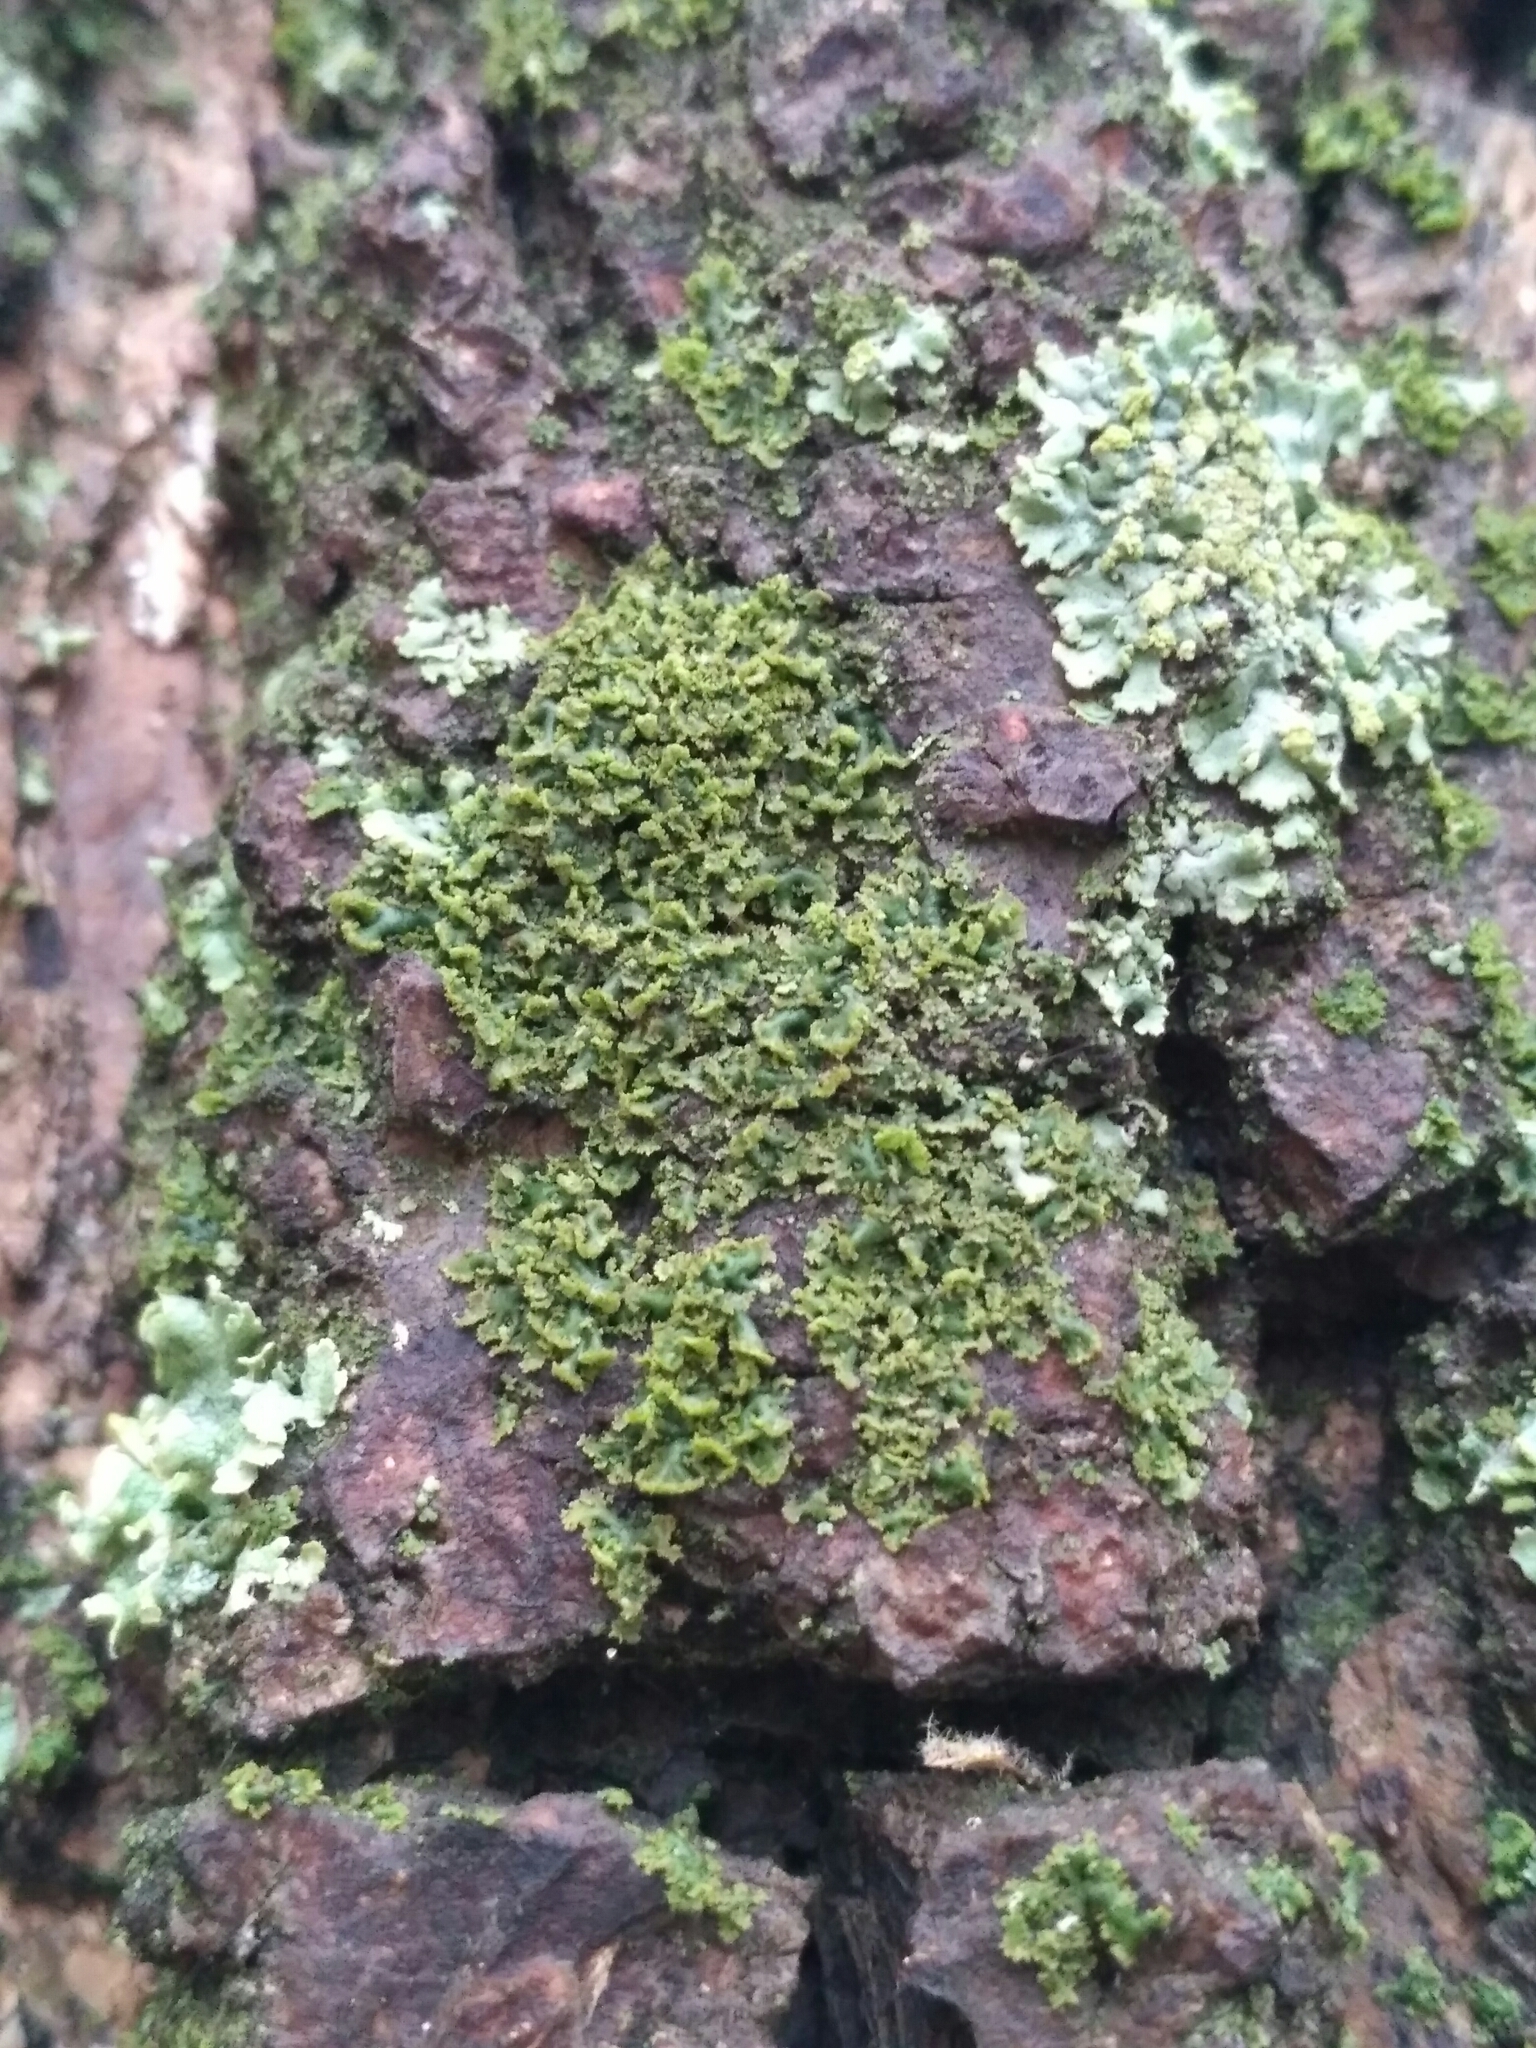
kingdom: Fungi
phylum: Ascomycota
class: Lecanoromycetes
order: Caliciales
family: Physciaceae
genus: Physciella
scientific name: Physciella nigricans
